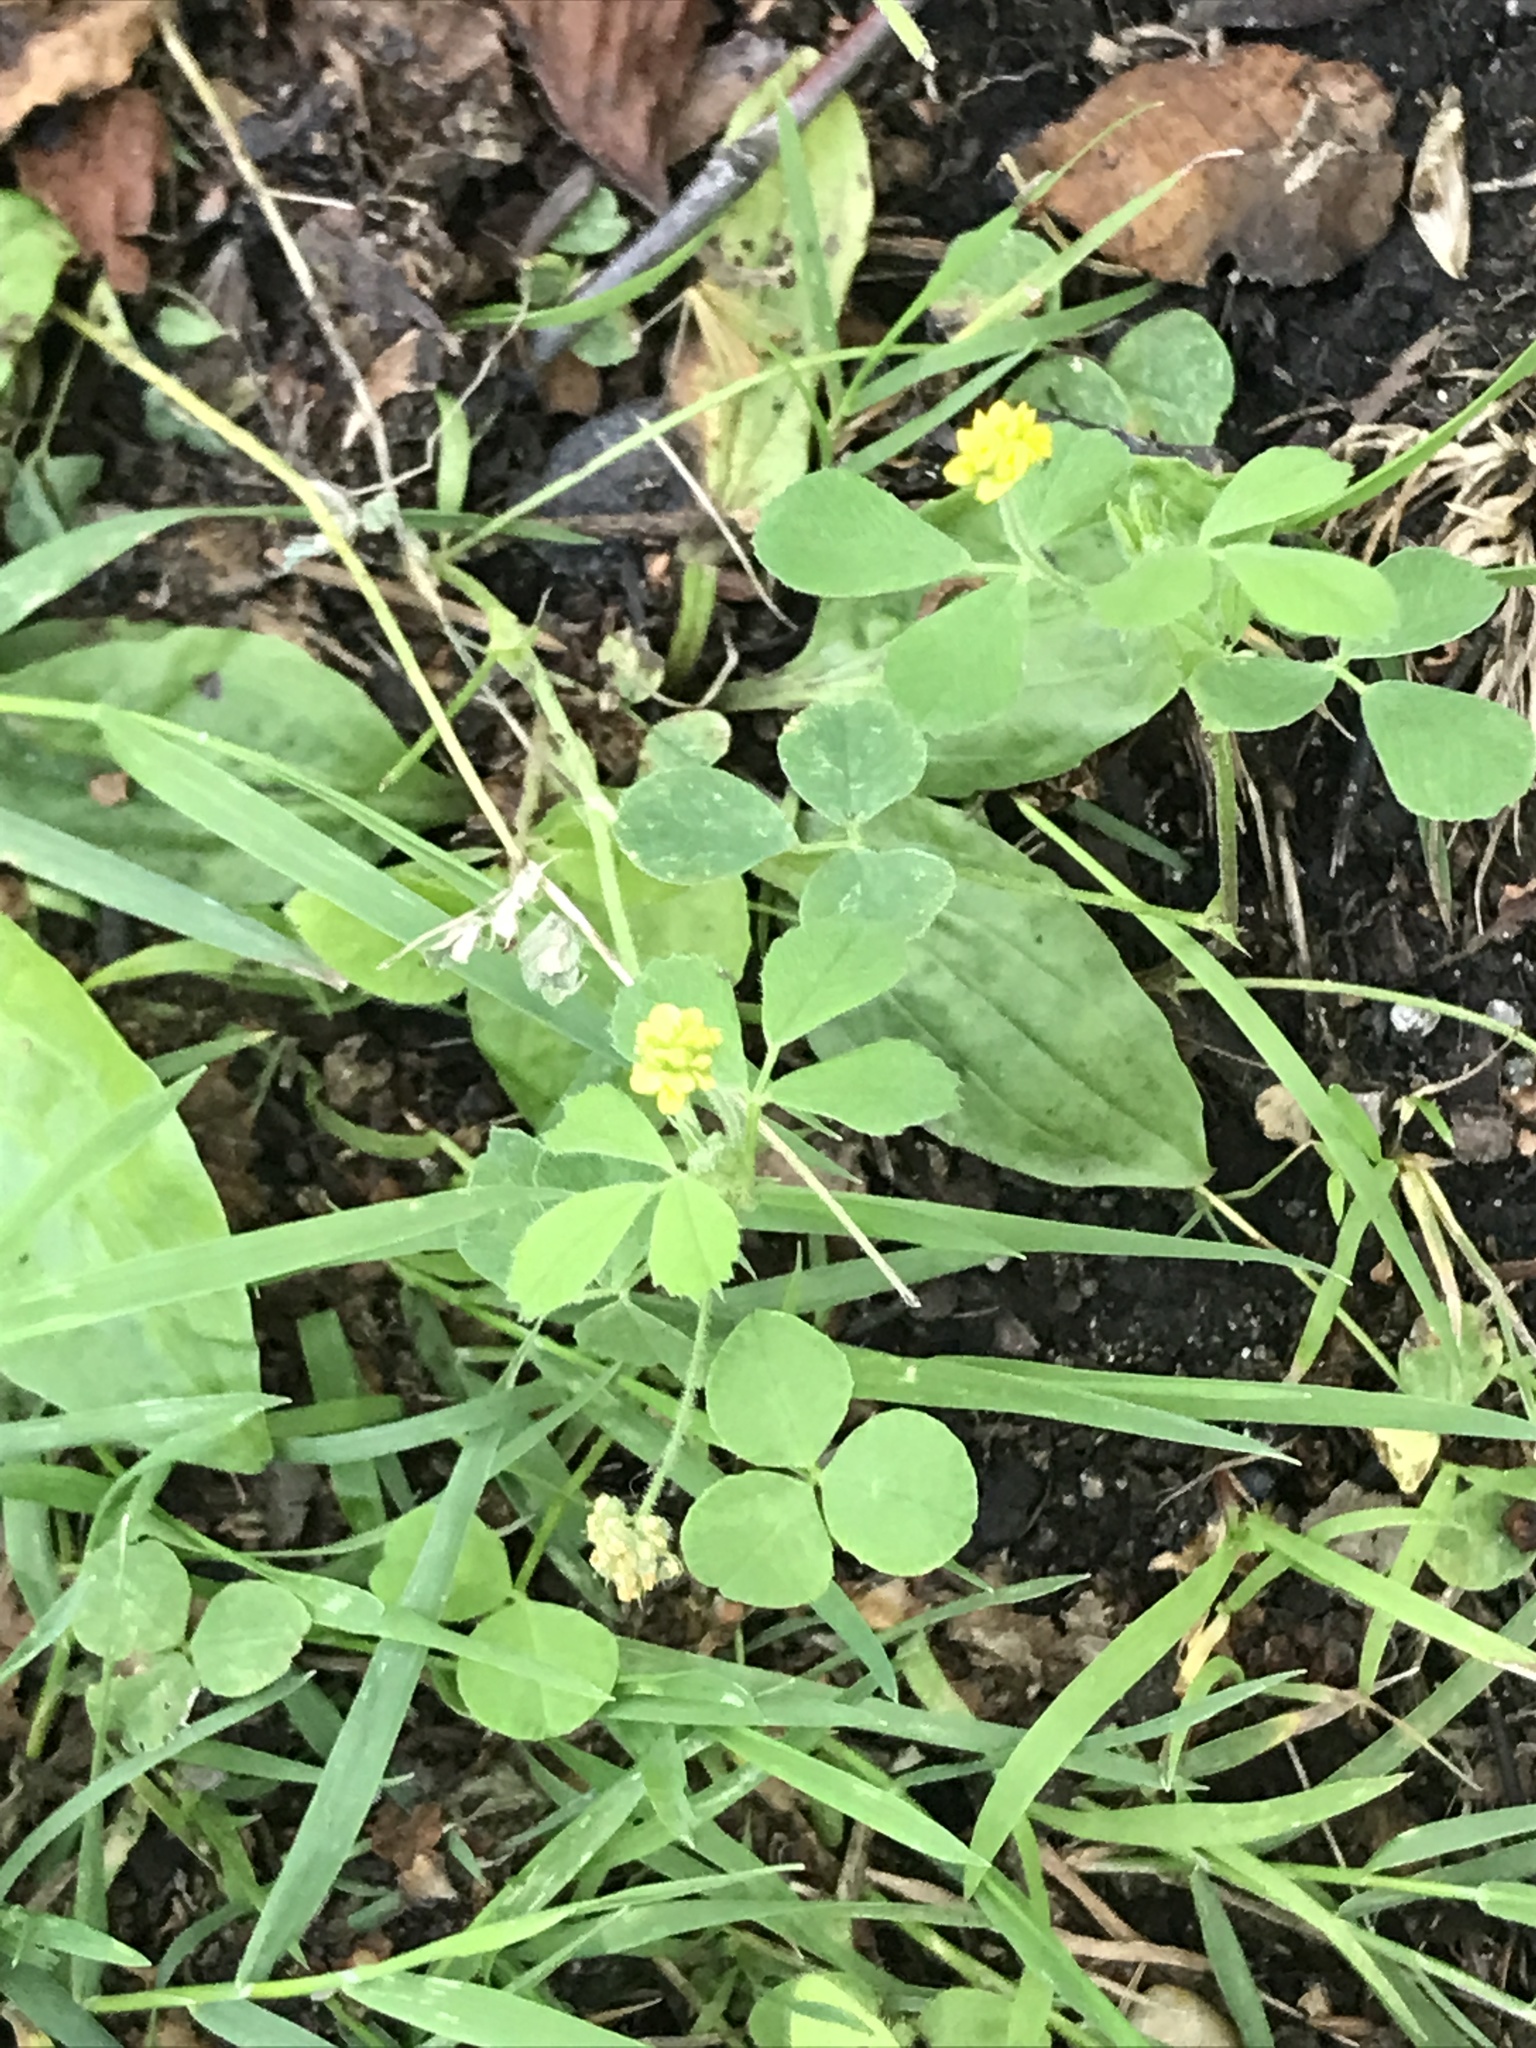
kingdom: Plantae
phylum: Tracheophyta
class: Magnoliopsida
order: Fabales
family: Fabaceae
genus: Medicago
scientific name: Medicago lupulina
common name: Black medick
